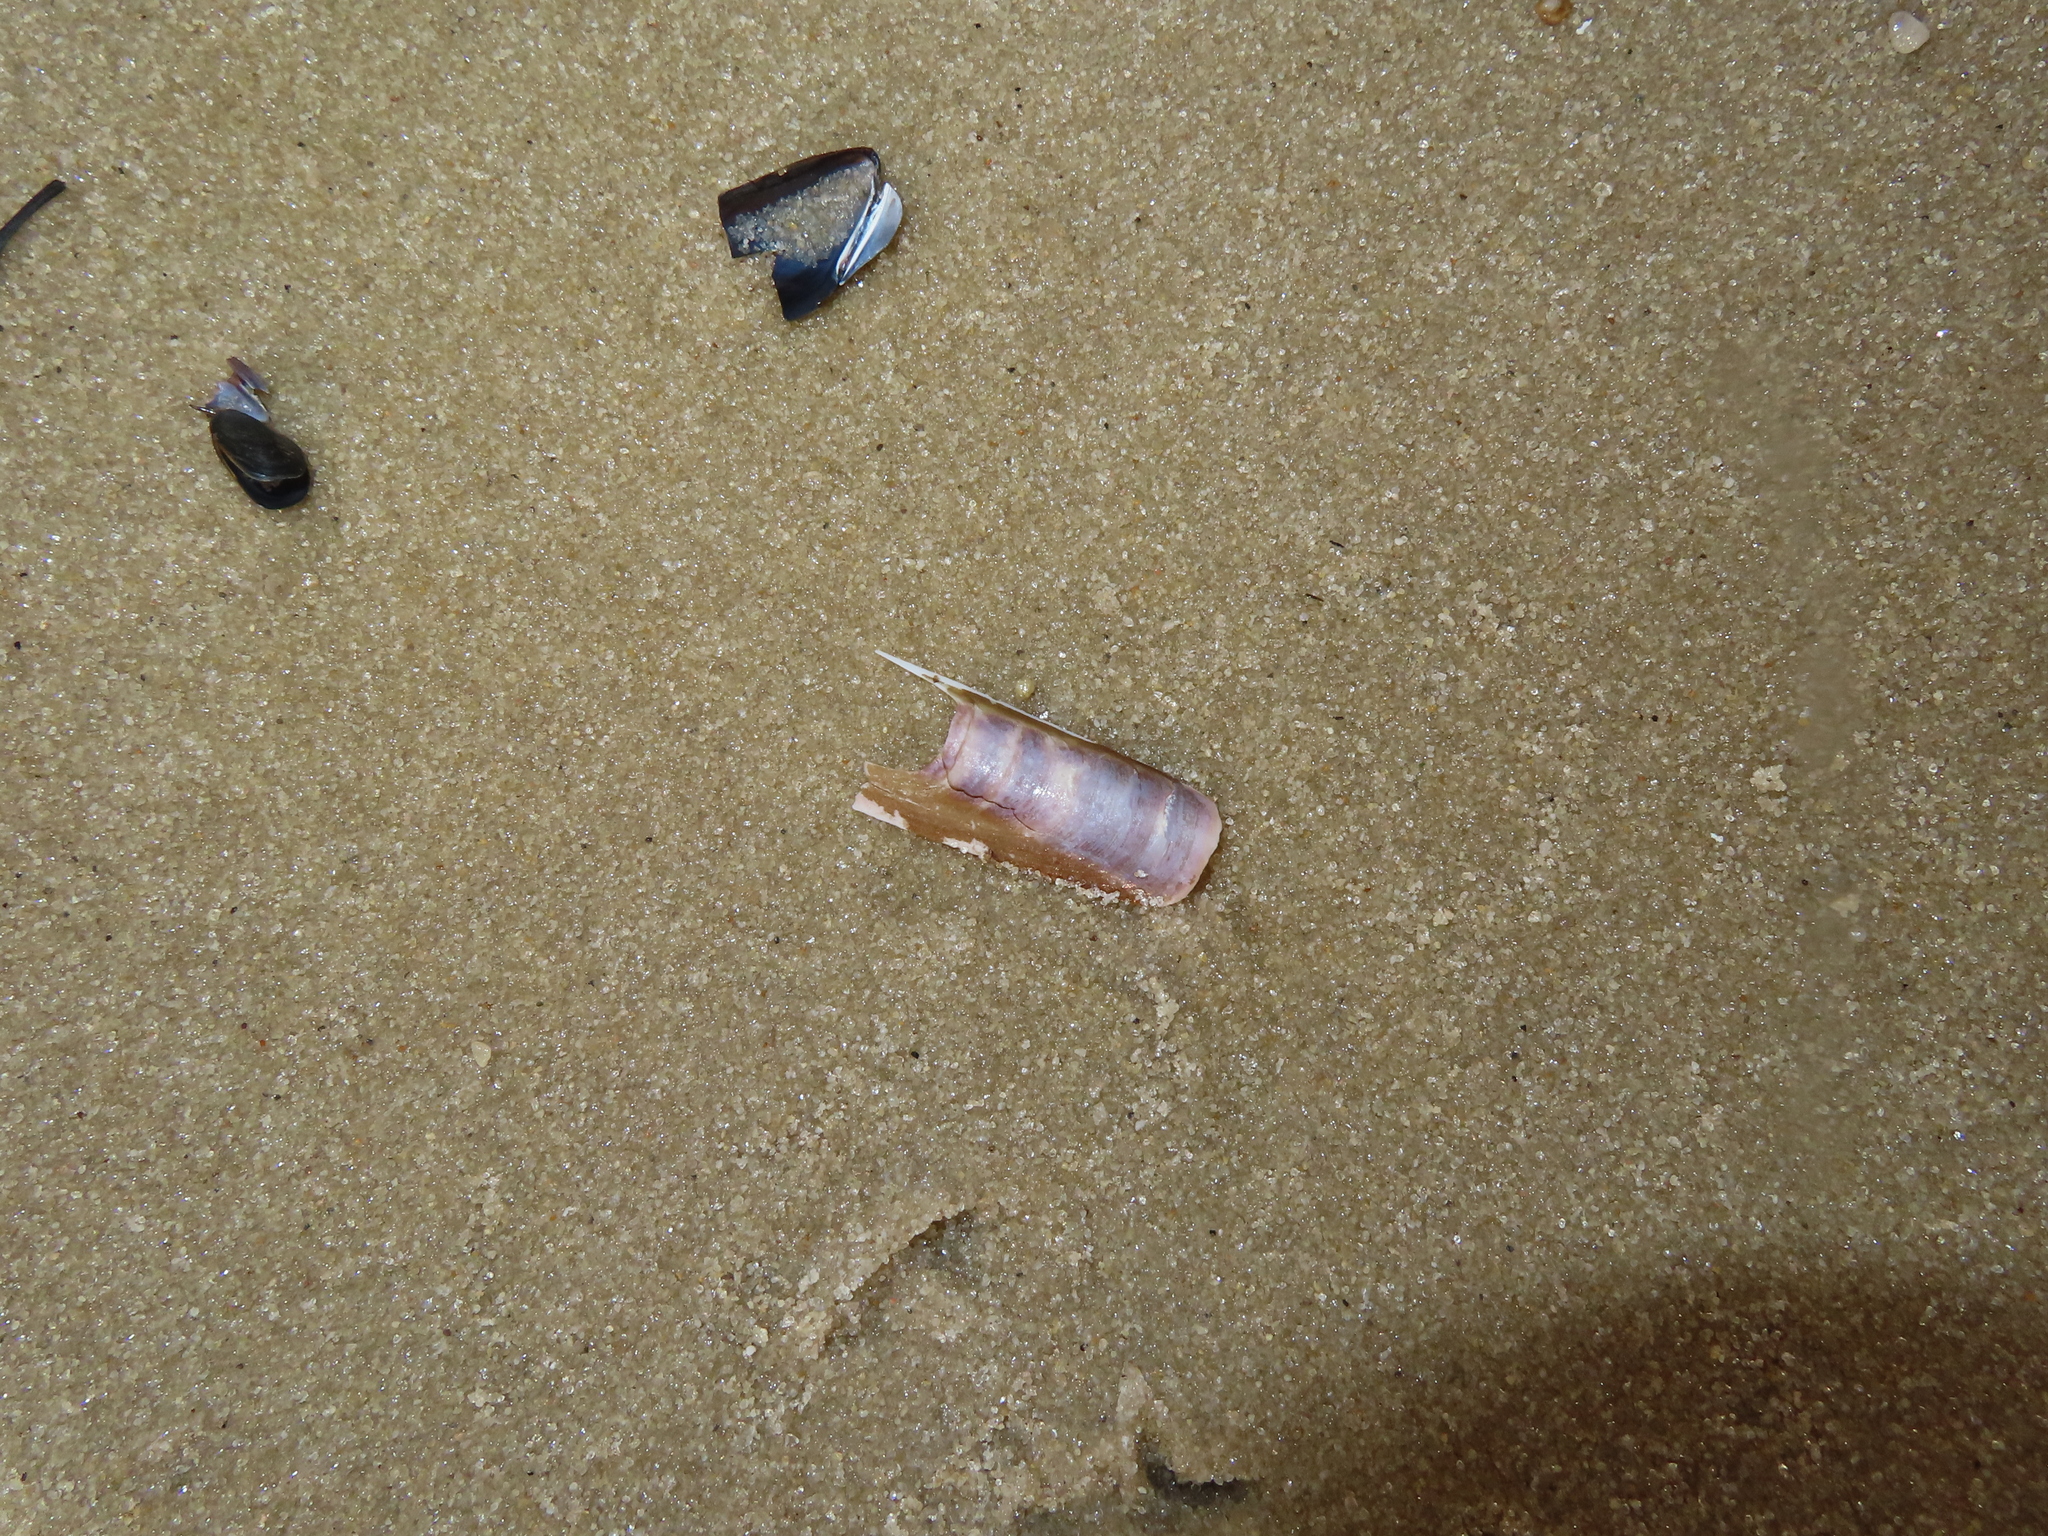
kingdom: Animalia
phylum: Mollusca
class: Bivalvia
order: Adapedonta
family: Pharidae
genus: Ensis
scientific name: Ensis leei
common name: American jack knife clam
